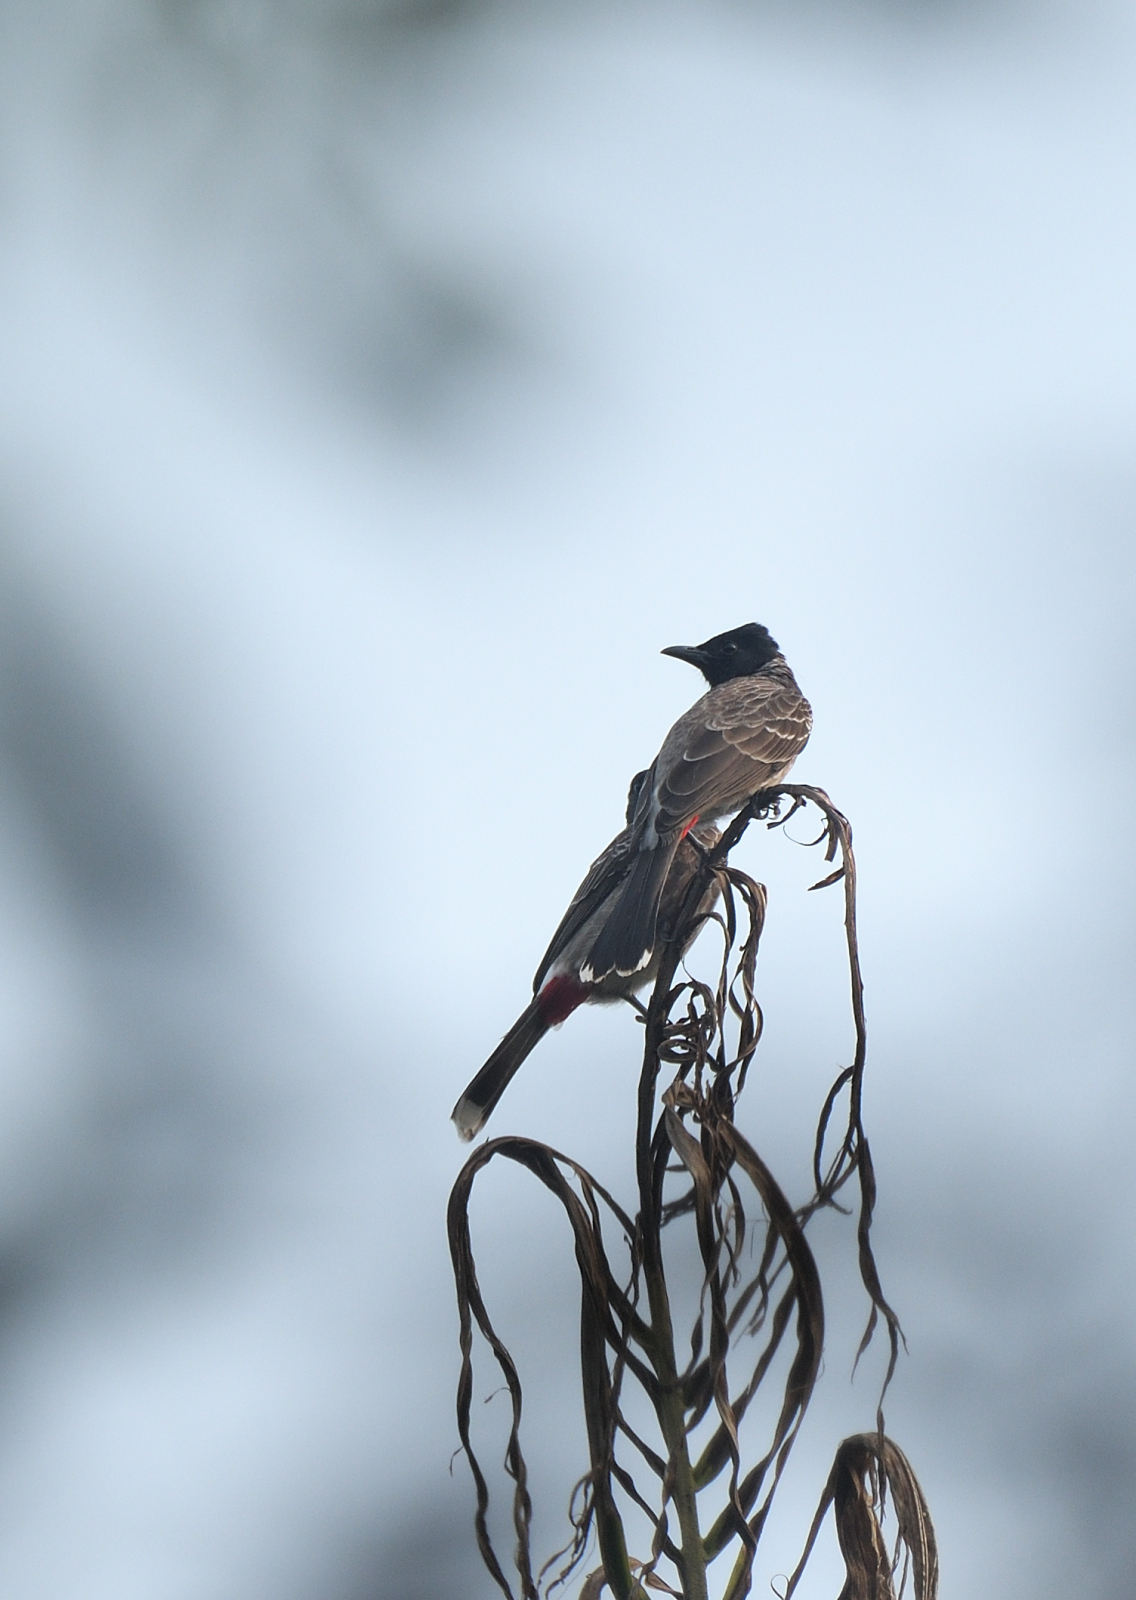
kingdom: Animalia
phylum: Chordata
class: Aves
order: Passeriformes
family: Pycnonotidae
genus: Pycnonotus
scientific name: Pycnonotus cafer
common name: Red-vented bulbul
